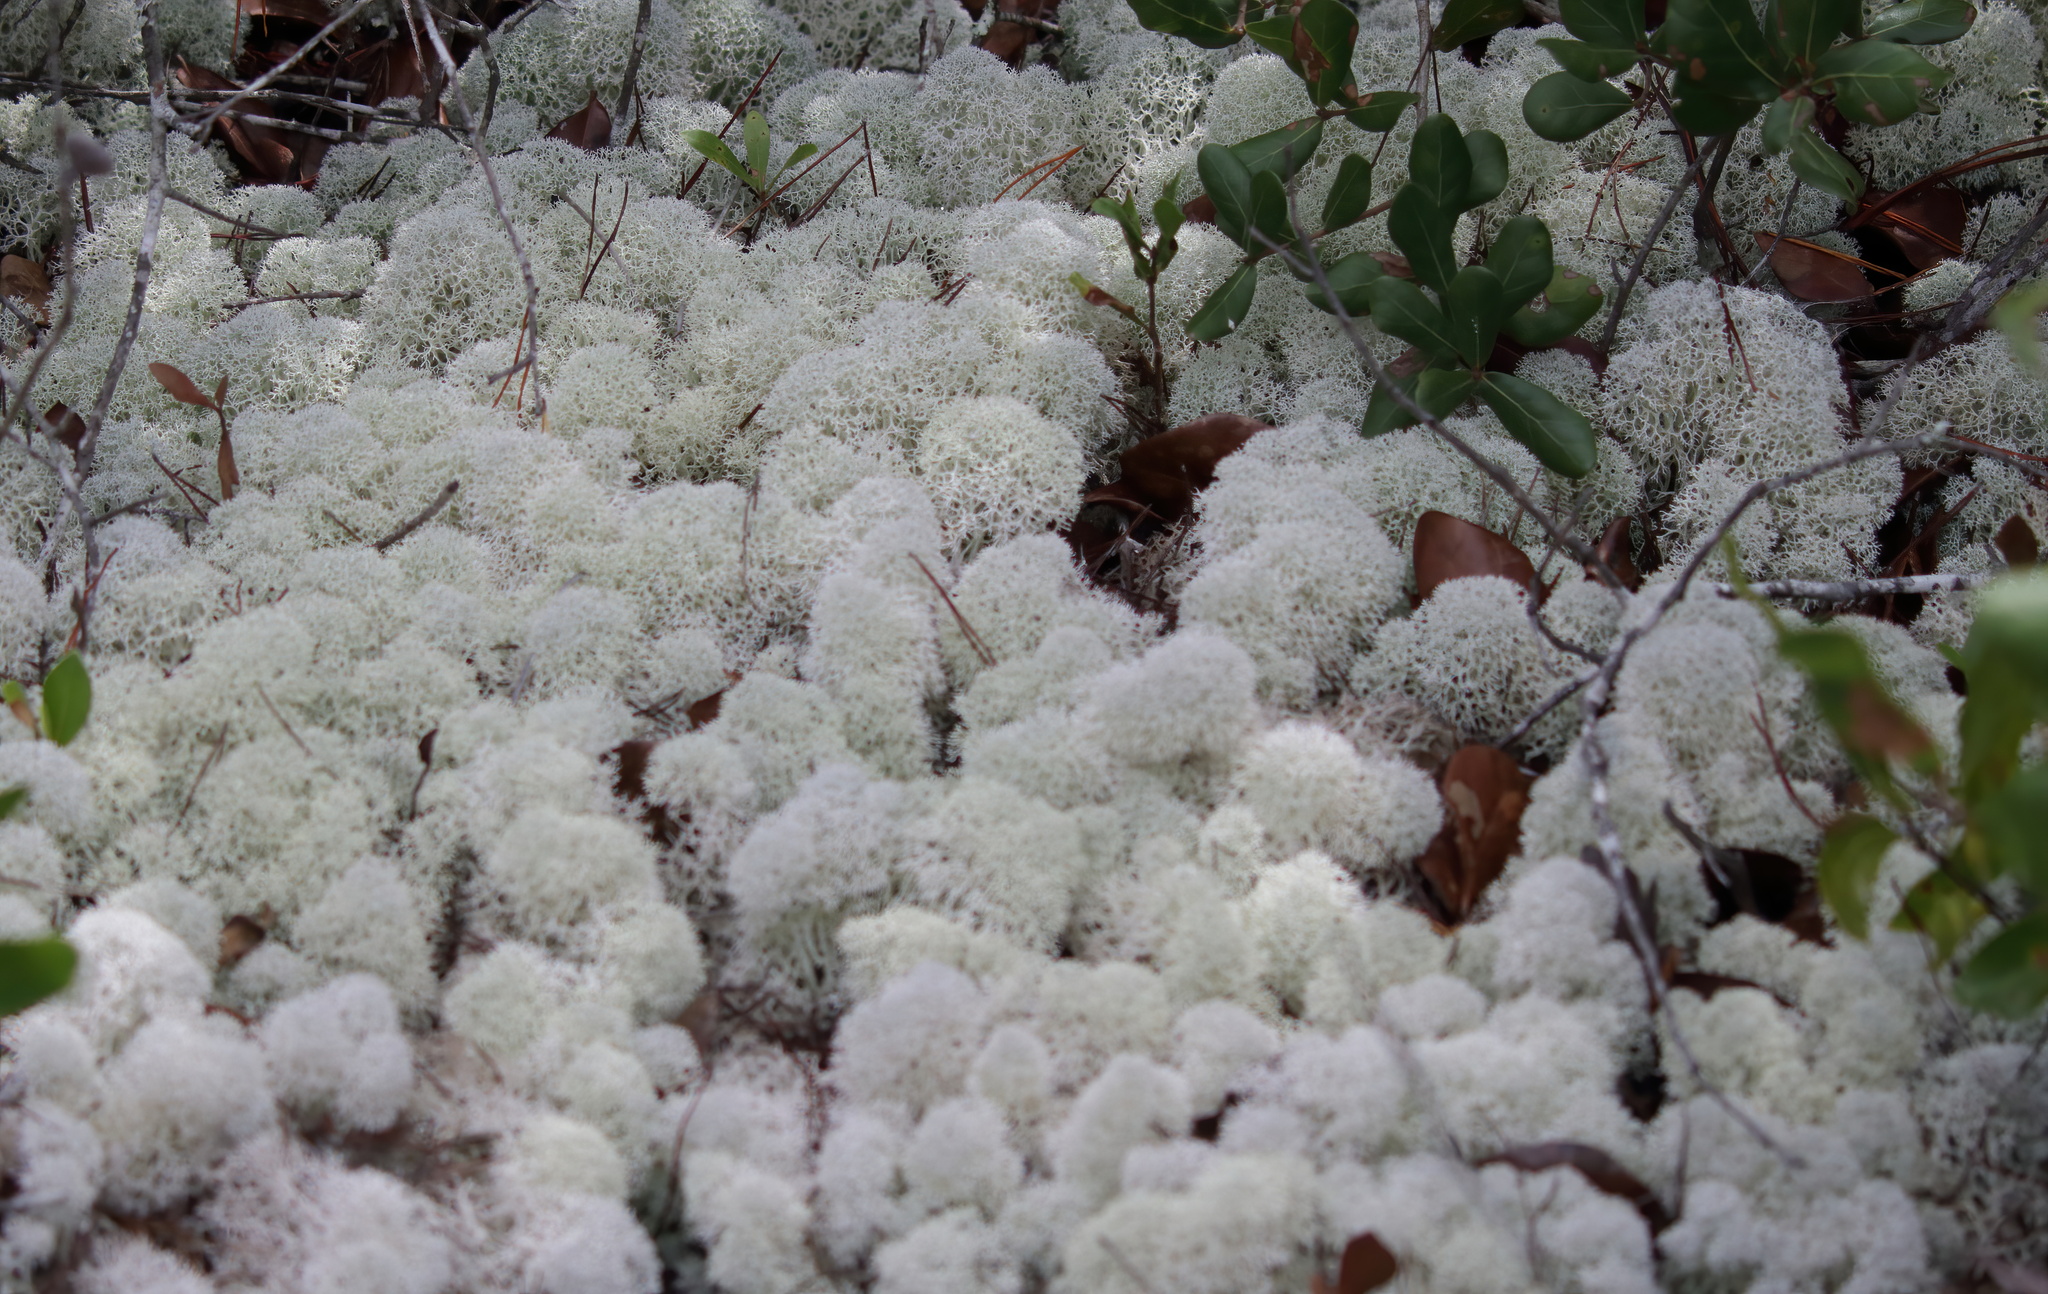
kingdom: Fungi
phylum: Ascomycota
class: Lecanoromycetes
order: Lecanorales
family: Cladoniaceae
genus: Cladonia
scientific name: Cladonia evansii
